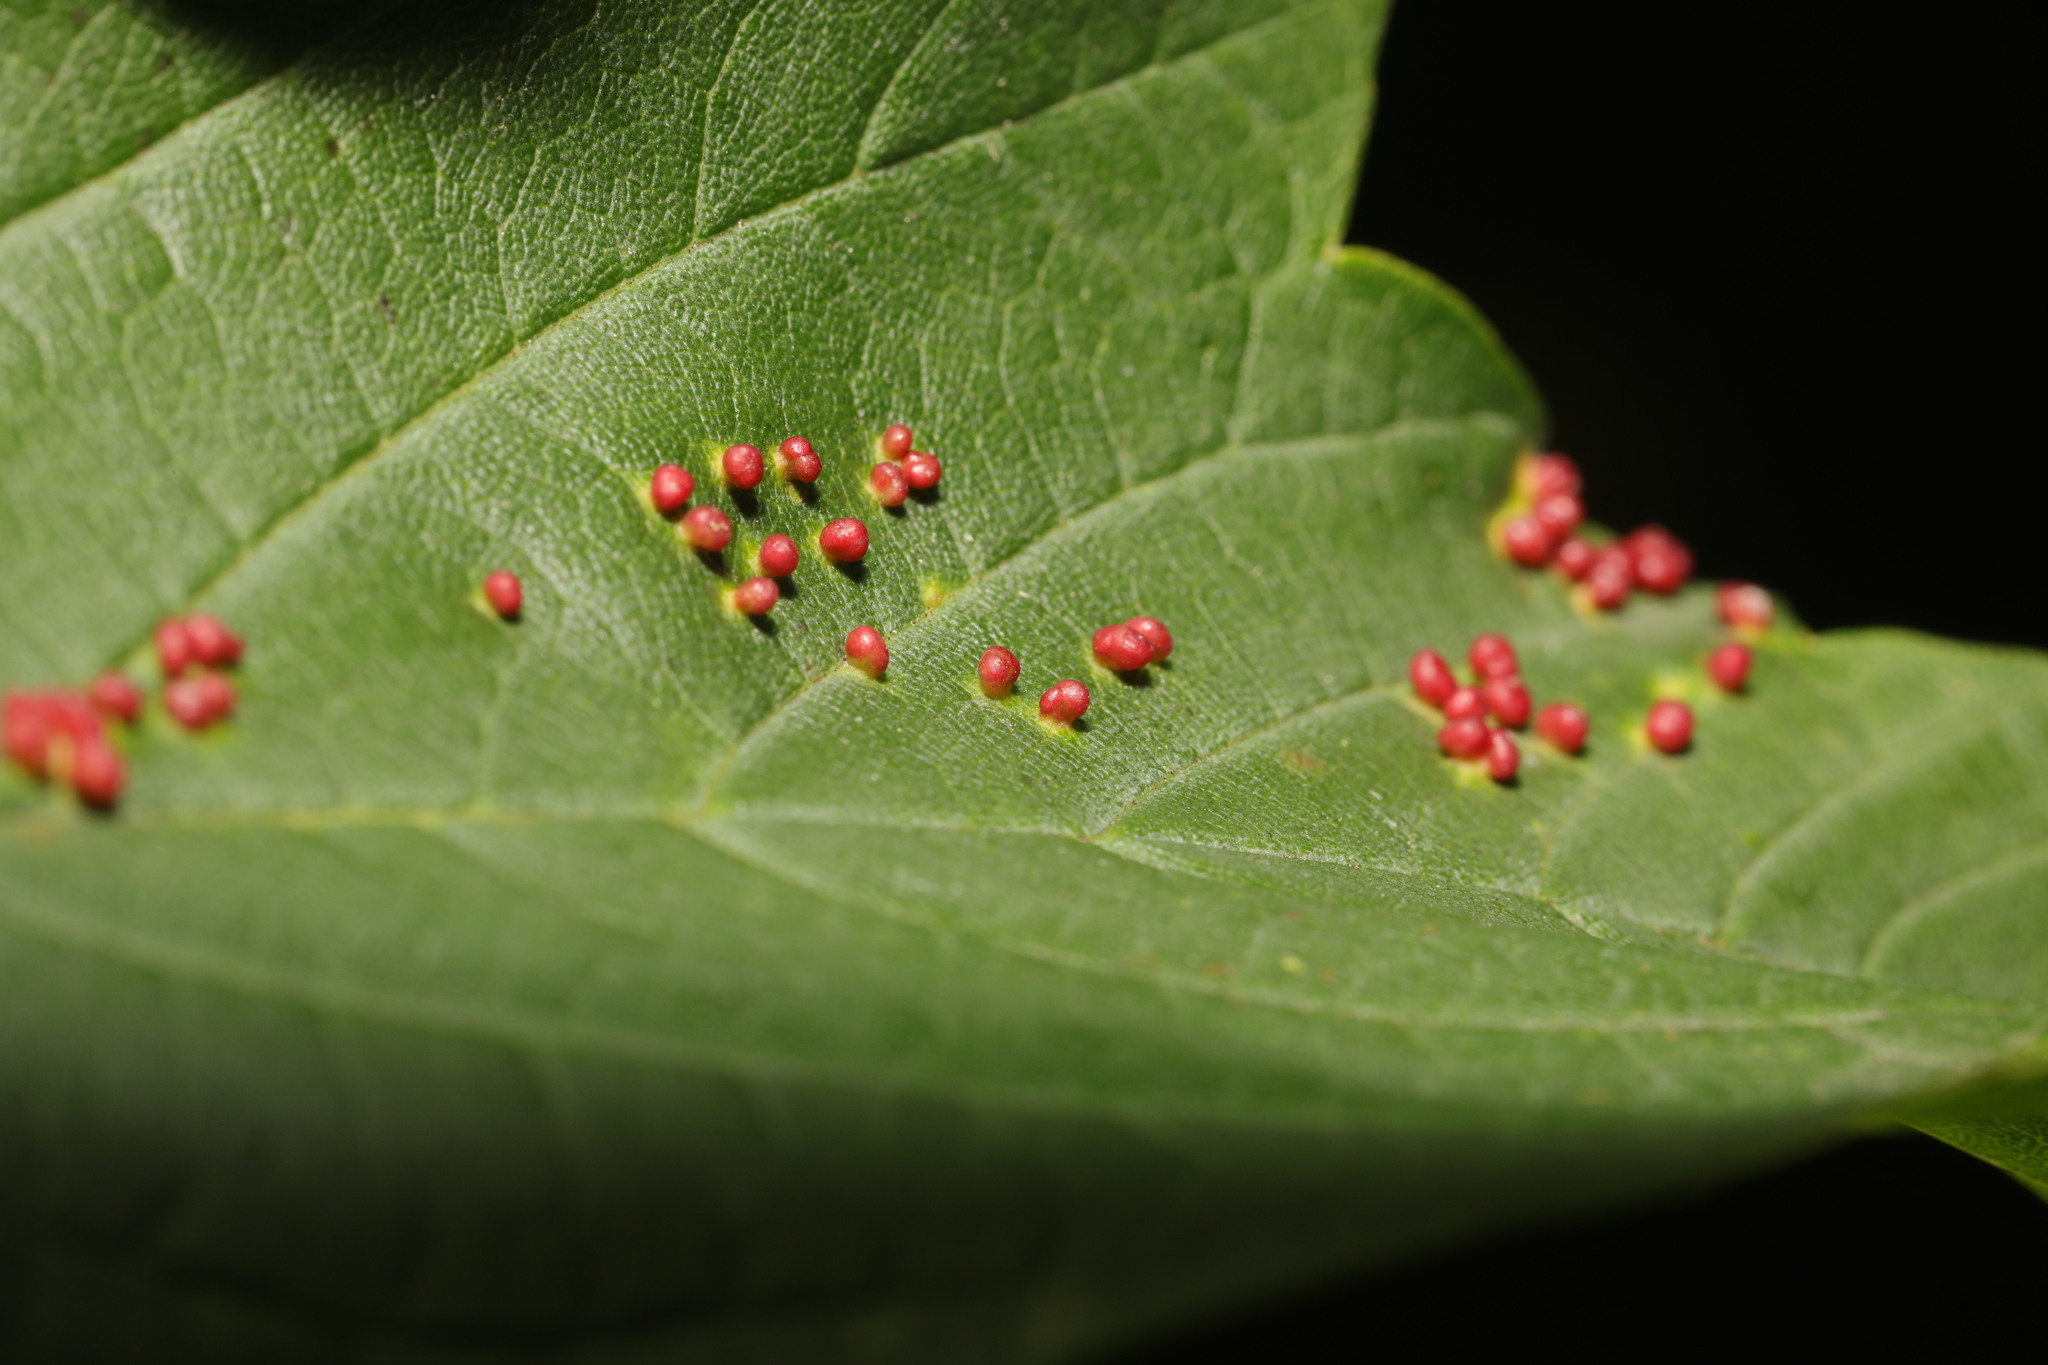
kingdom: Animalia
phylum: Arthropoda
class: Arachnida
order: Trombidiformes
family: Eriophyidae
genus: Aceria
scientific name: Aceria cephaloneus
